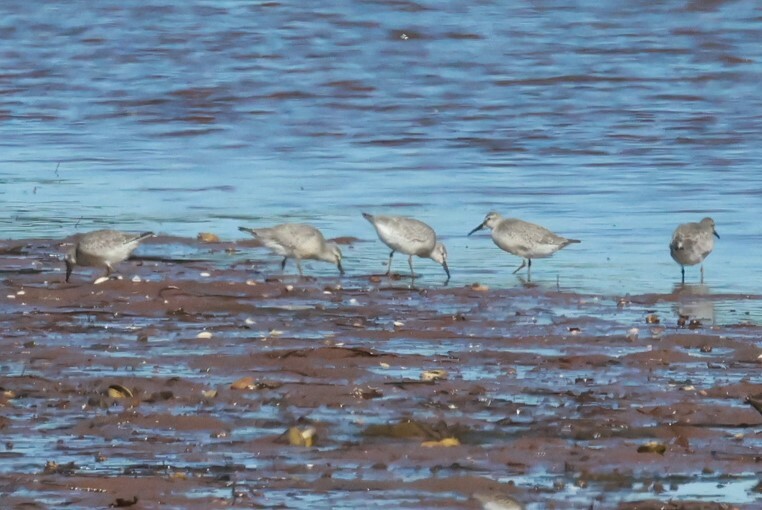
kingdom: Animalia
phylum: Chordata
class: Aves
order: Charadriiformes
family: Scolopacidae
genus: Calidris
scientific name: Calidris canutus
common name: Red knot
